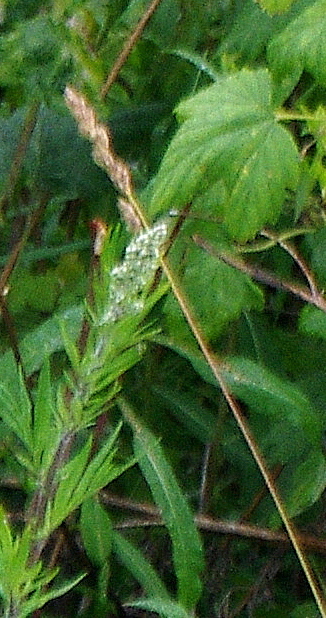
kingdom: Plantae
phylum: Tracheophyta
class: Liliopsida
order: Poales
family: Poaceae
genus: Dactylis
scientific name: Dactylis glomerata
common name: Orchardgrass
